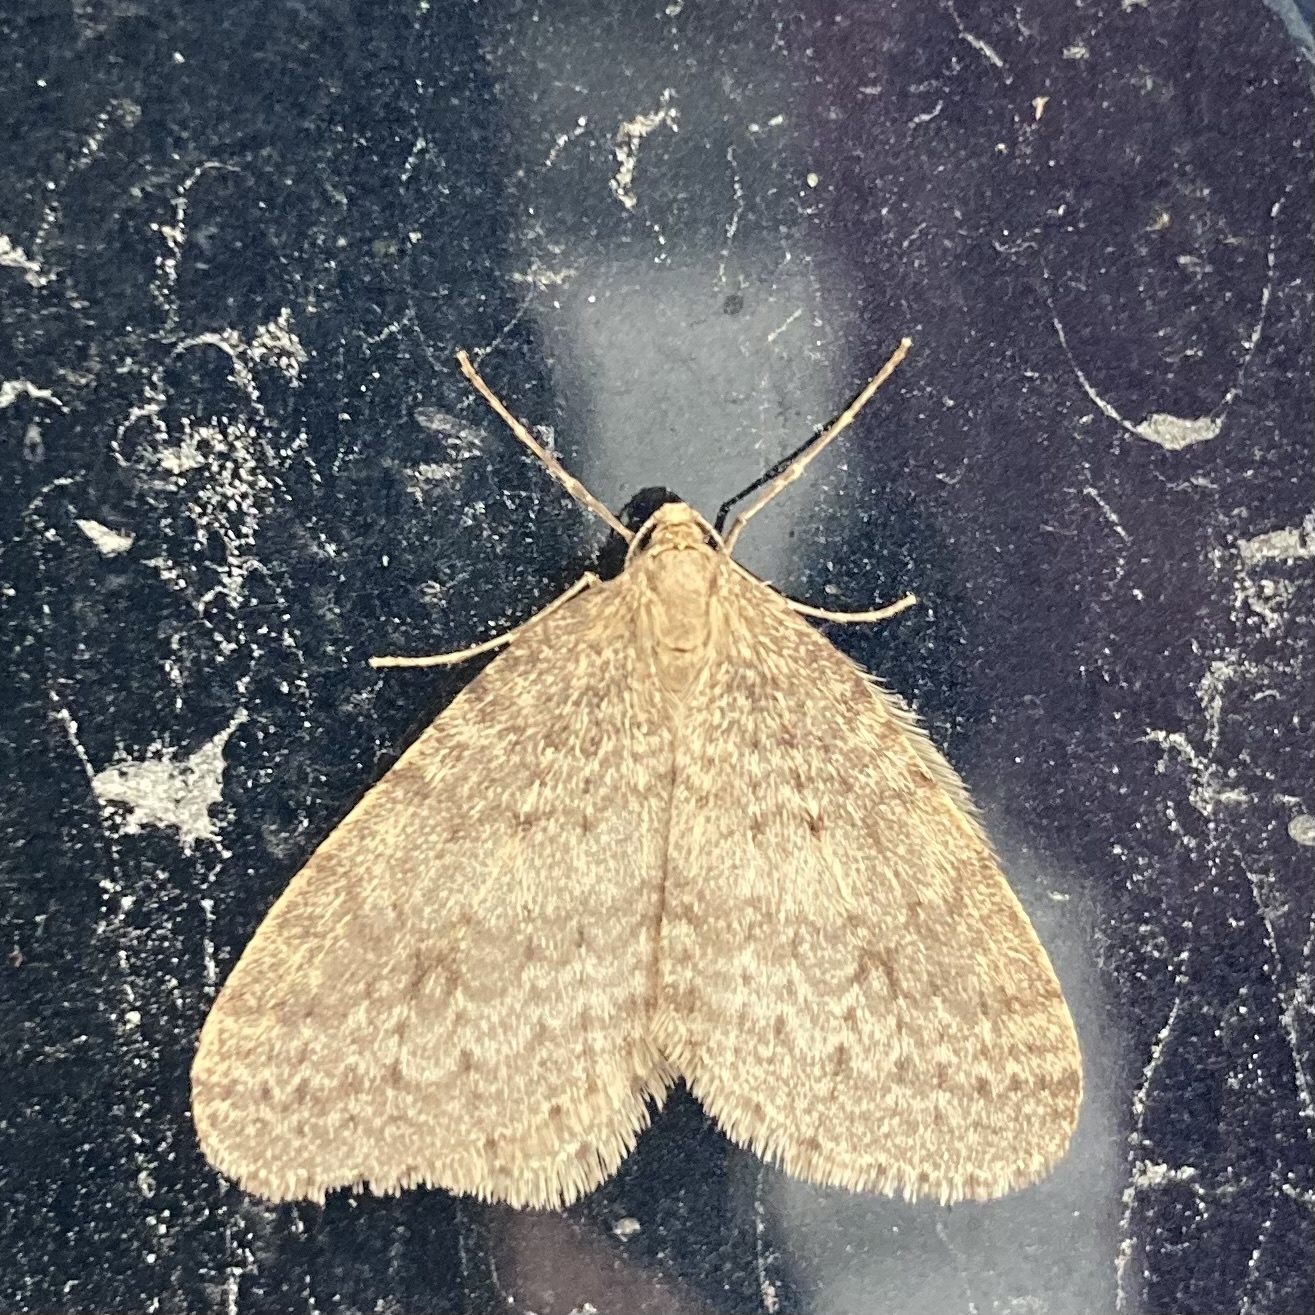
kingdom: Animalia
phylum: Arthropoda
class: Insecta
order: Lepidoptera
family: Geometridae
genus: Operophtera
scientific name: Operophtera bruceata
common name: Bruce spanworm
